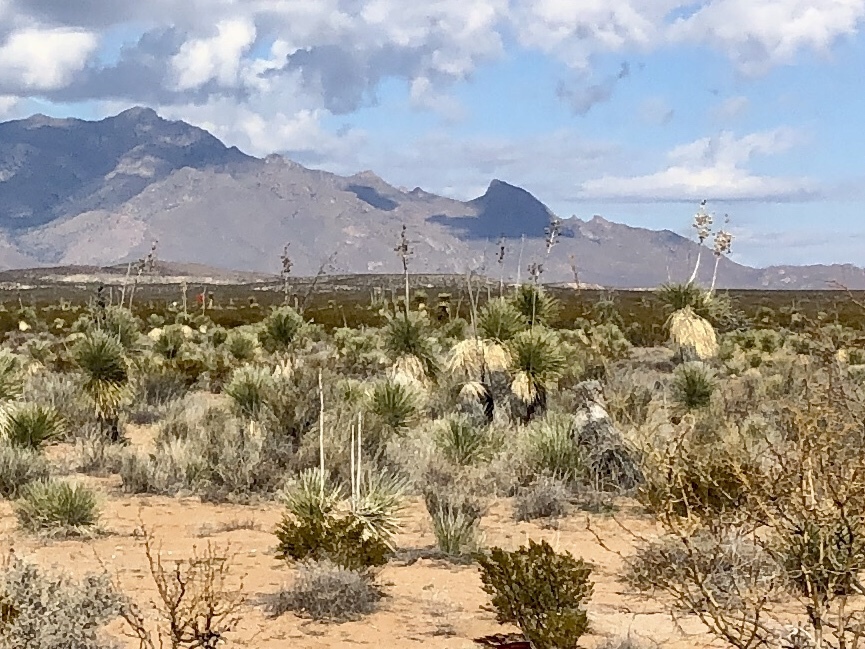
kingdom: Plantae
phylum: Tracheophyta
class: Liliopsida
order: Asparagales
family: Asparagaceae
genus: Yucca
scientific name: Yucca elata
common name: Palmella
